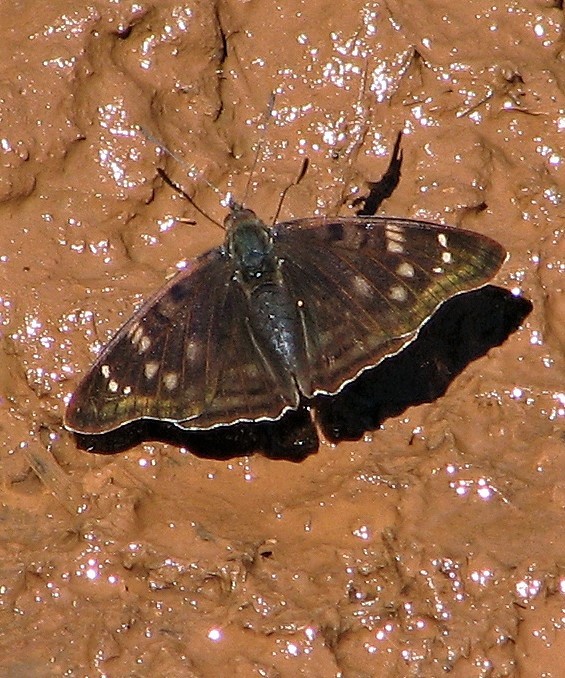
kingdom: Animalia
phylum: Arthropoda
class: Insecta
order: Lepidoptera
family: Nymphalidae
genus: Doxocopa
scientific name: Doxocopa zunilda
